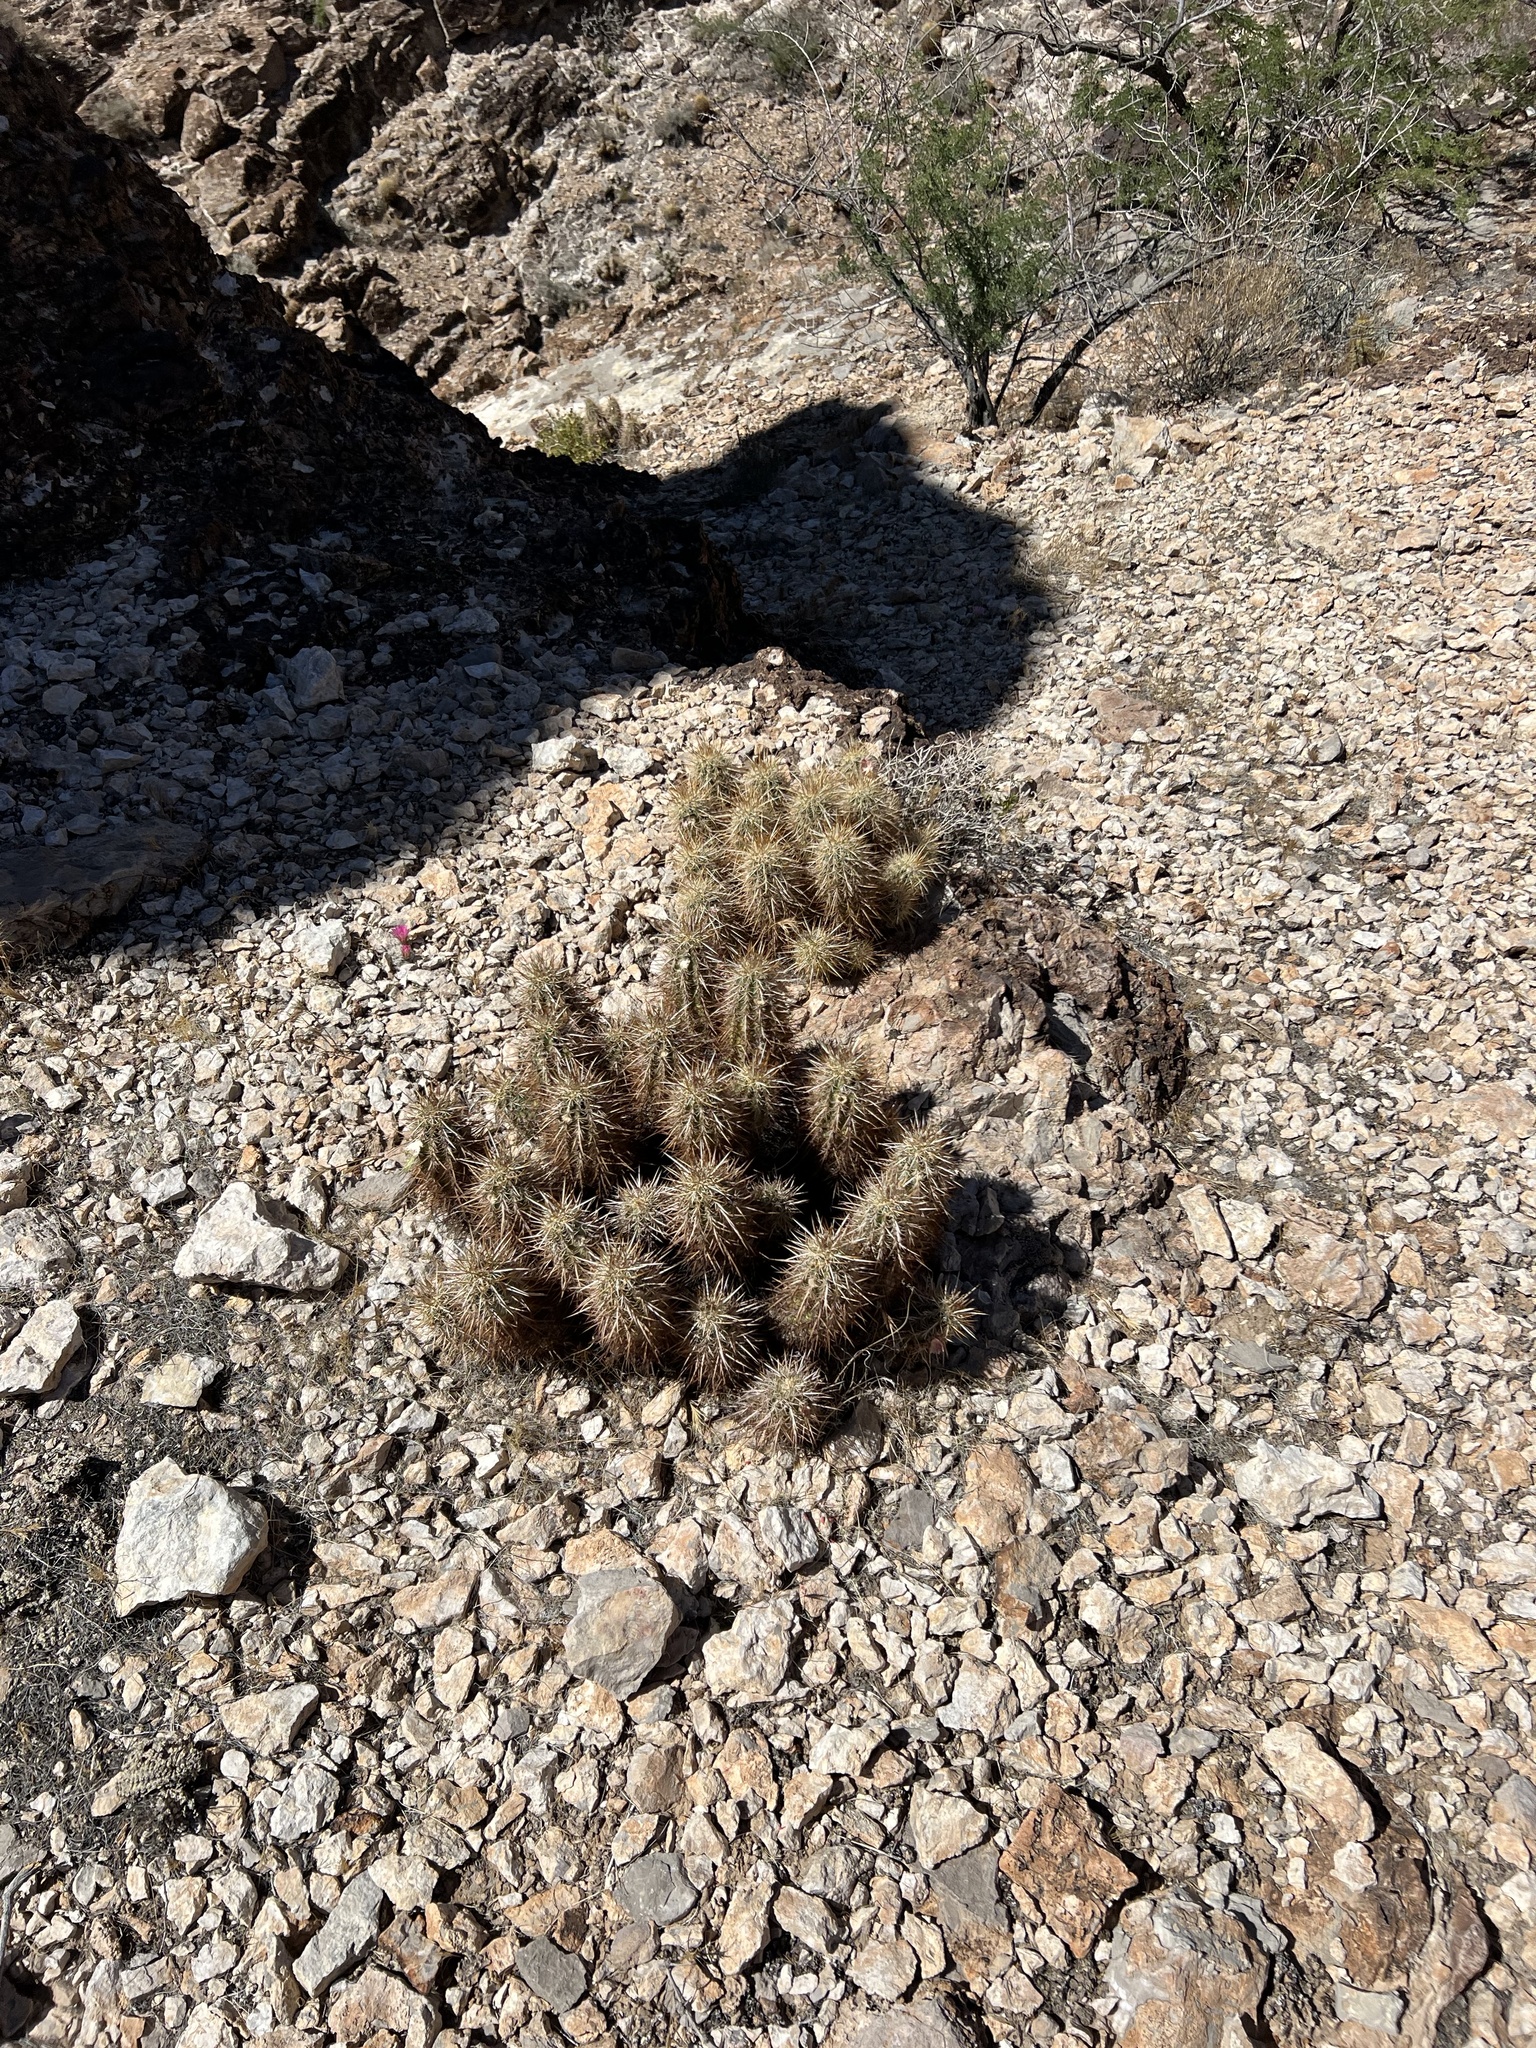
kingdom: Plantae
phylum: Tracheophyta
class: Magnoliopsida
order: Caryophyllales
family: Cactaceae
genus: Echinocereus
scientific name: Echinocereus engelmannii
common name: Engelmann's hedgehog cactus
